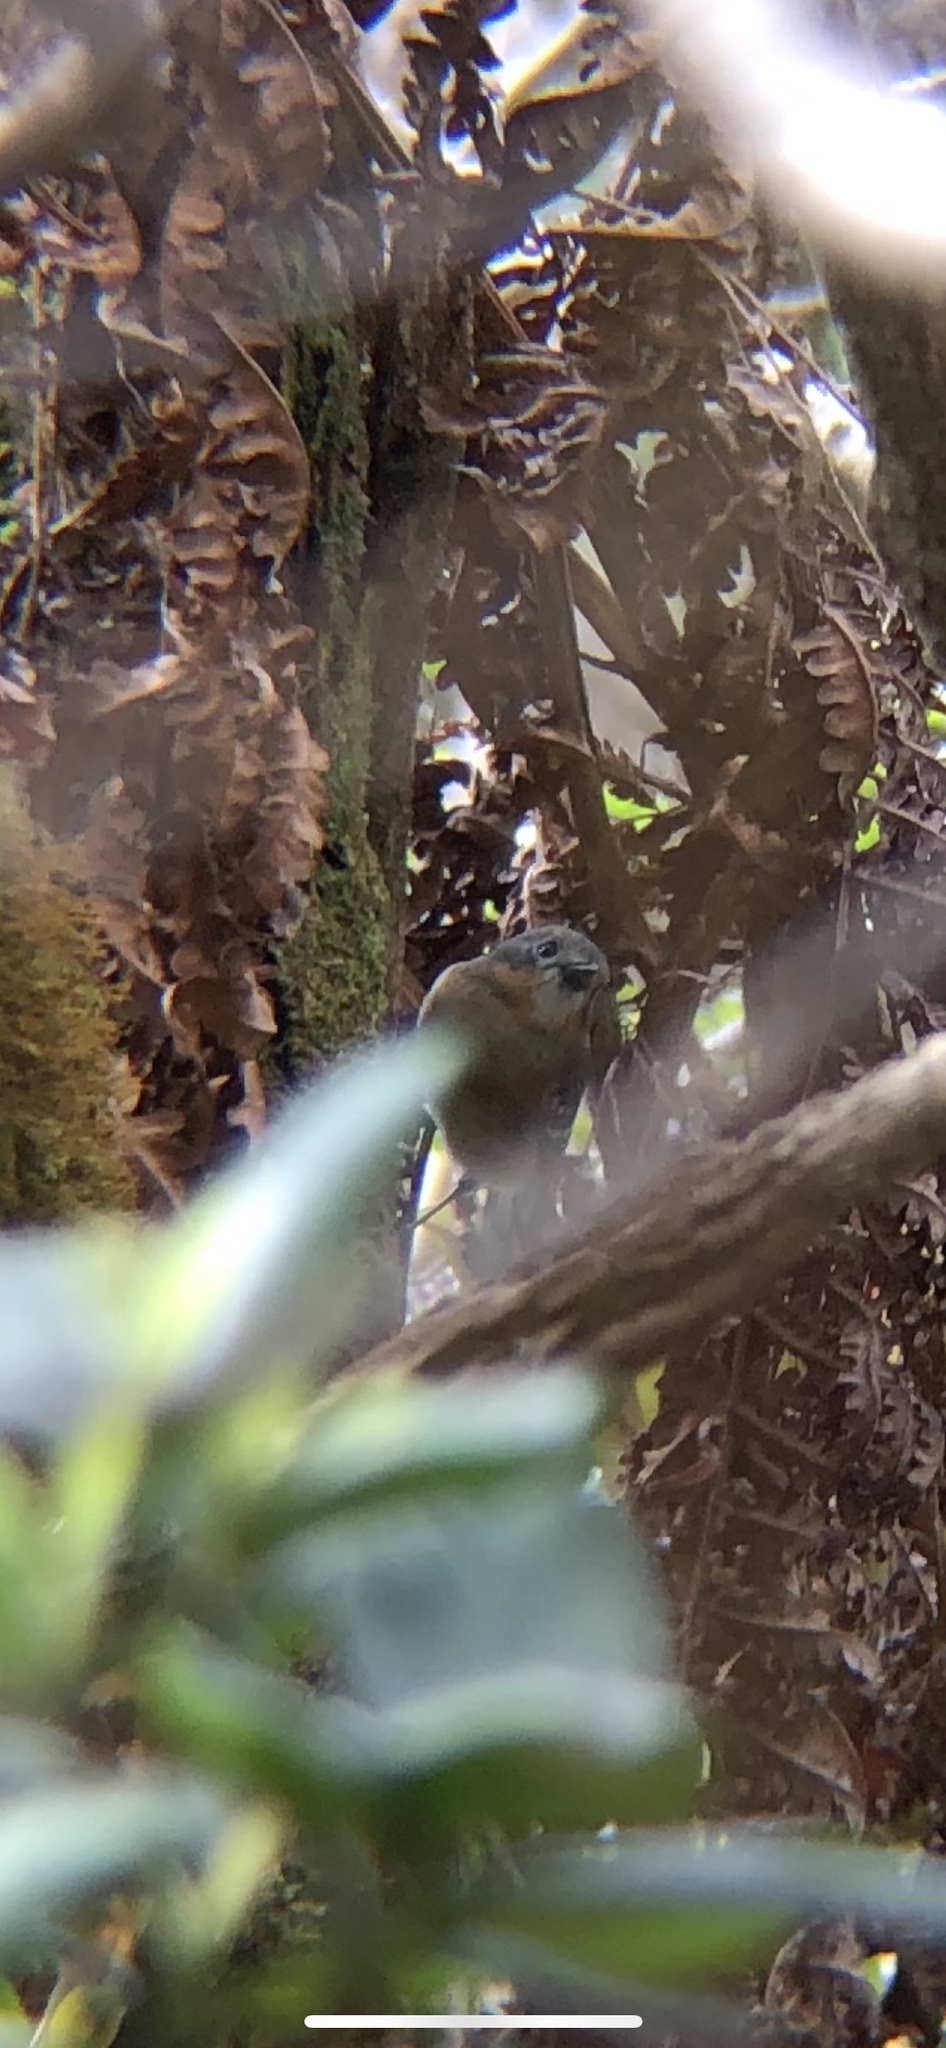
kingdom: Animalia
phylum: Chordata
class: Aves
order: Passeriformes
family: Monarchidae
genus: Chasiempis
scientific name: Chasiempis sclateri
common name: Kauai elepaio
